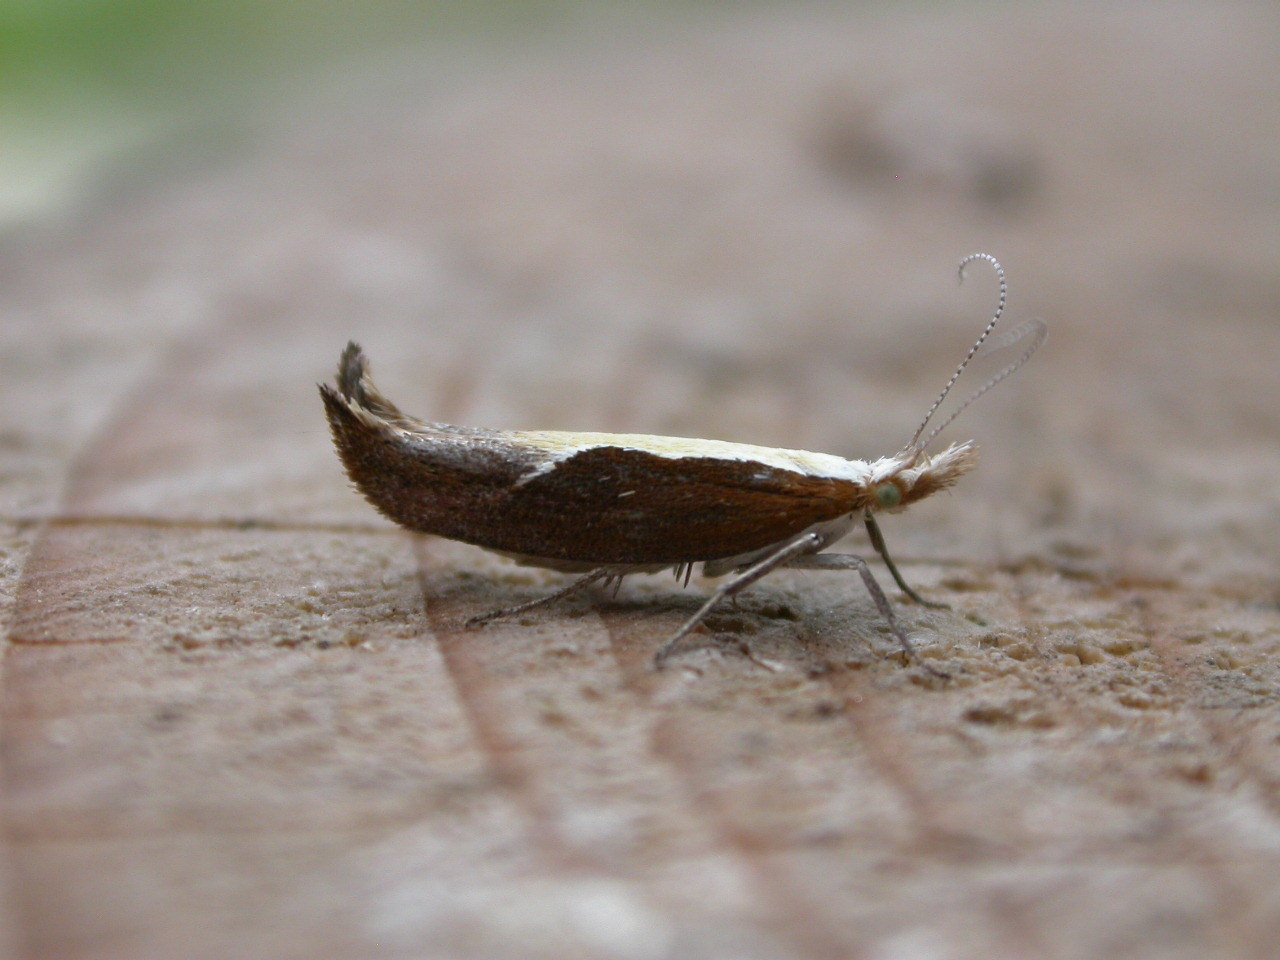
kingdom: Animalia
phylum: Arthropoda
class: Insecta
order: Lepidoptera
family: Ypsolophidae
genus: Ypsolopha
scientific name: Ypsolopha dentella
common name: Honeysuckle moth
